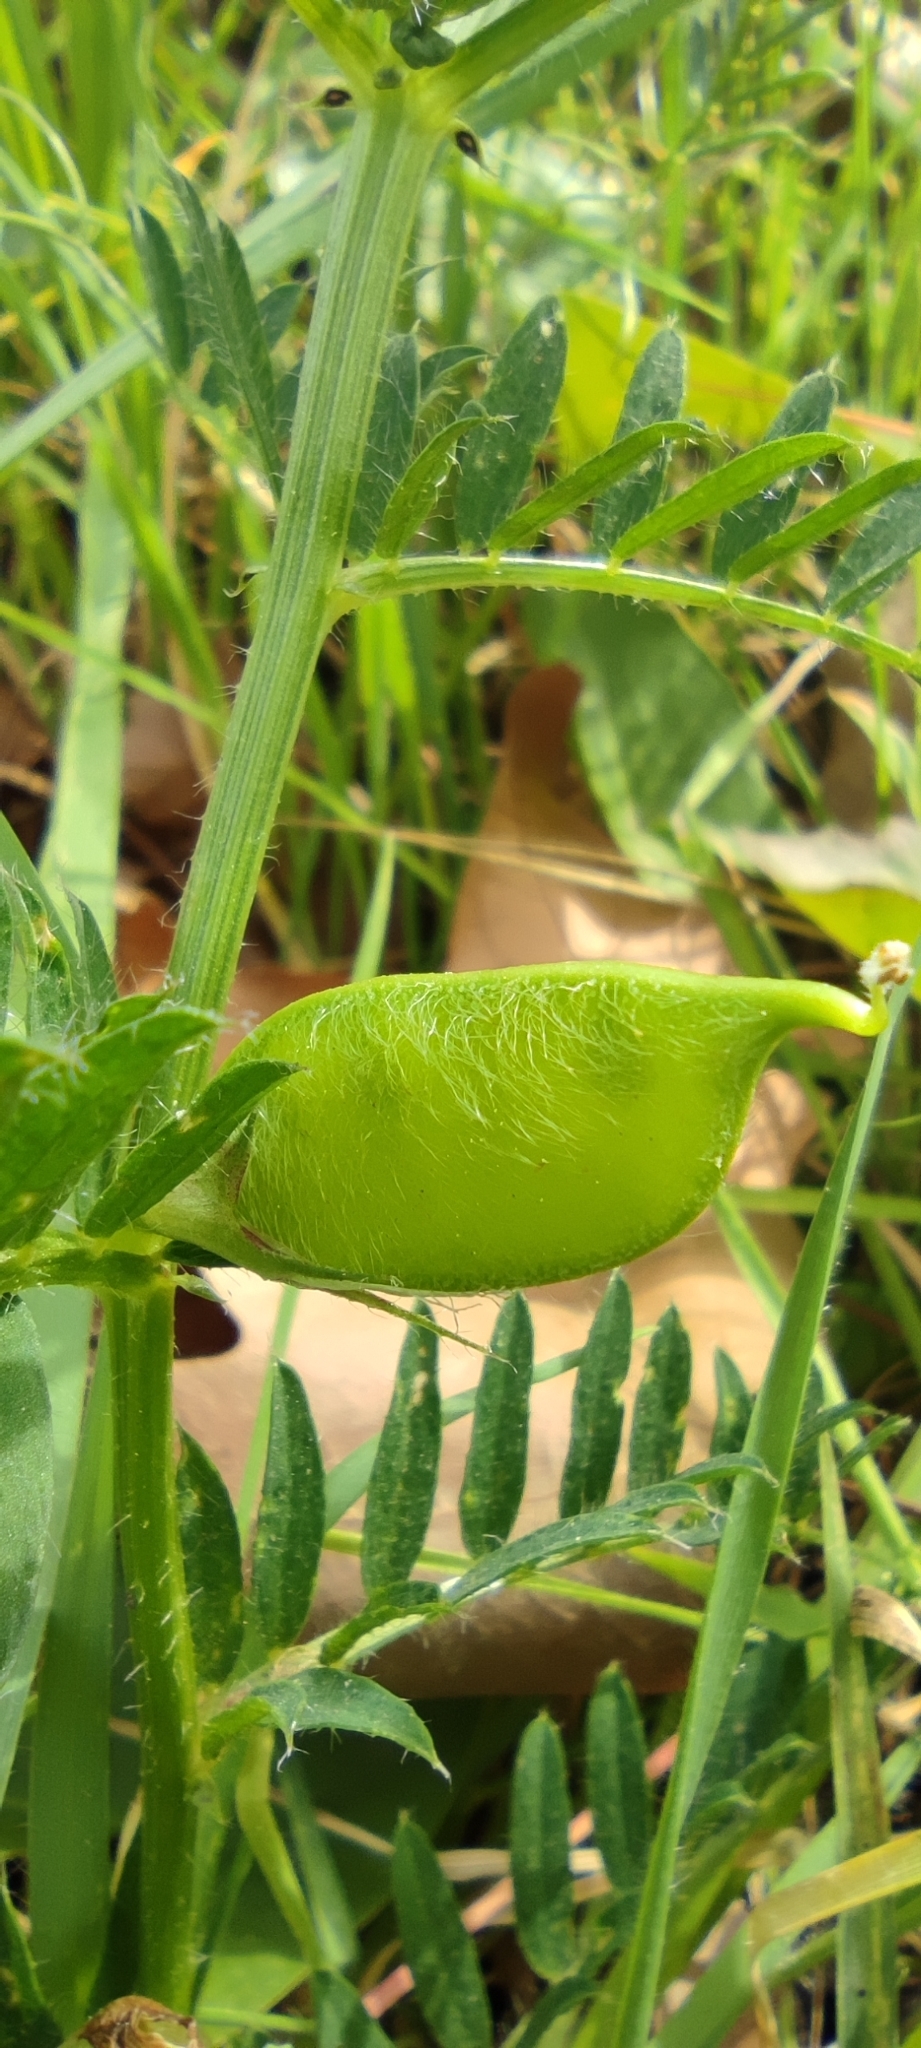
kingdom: Plantae
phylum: Tracheophyta
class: Magnoliopsida
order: Fabales
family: Fabaceae
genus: Vicia
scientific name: Vicia lutea
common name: Smooth yellow vetch
